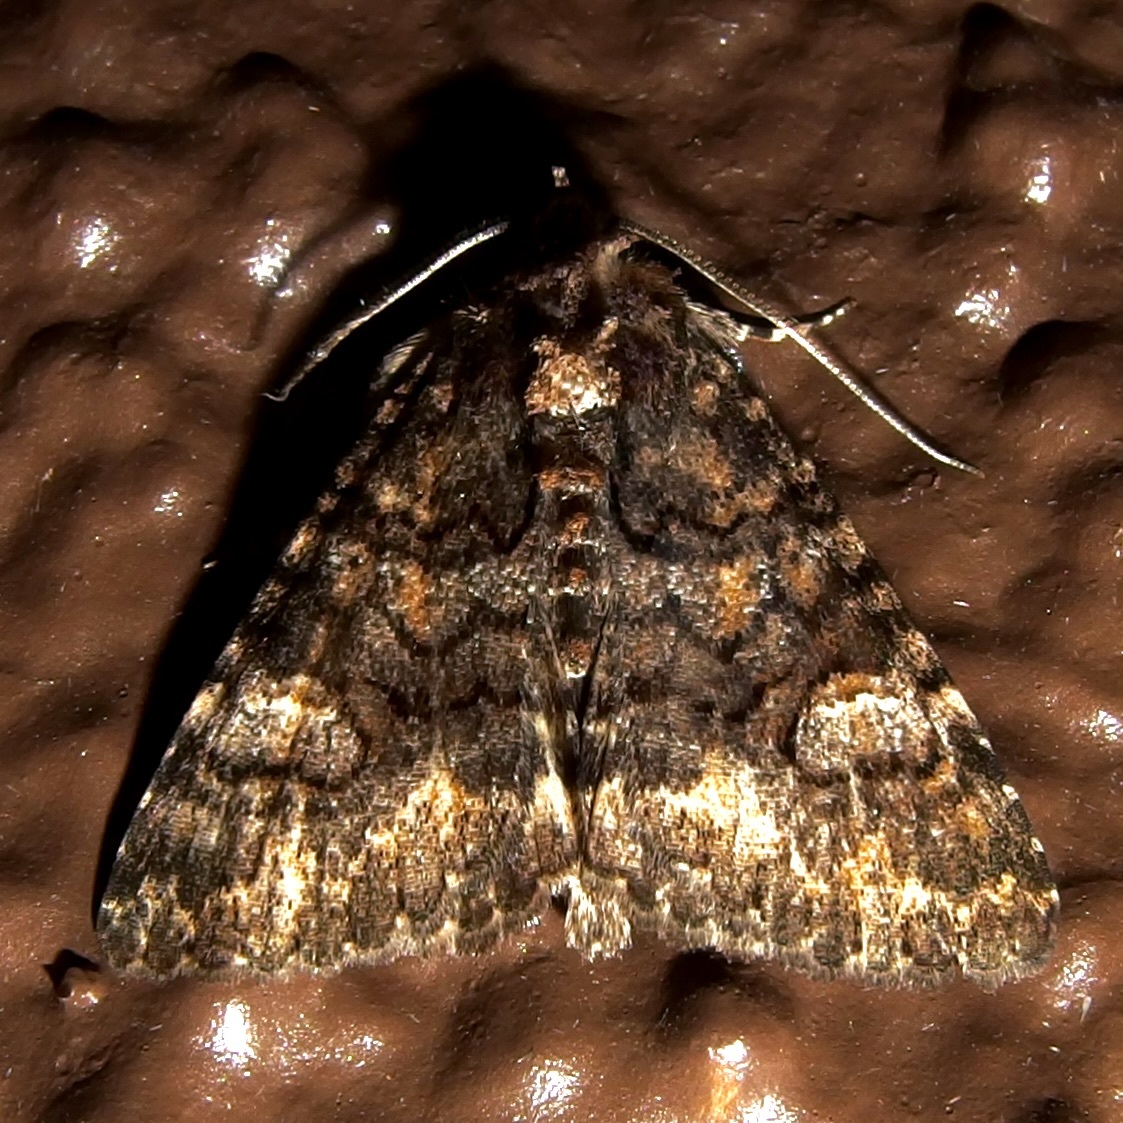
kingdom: Animalia
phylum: Arthropoda
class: Insecta
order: Lepidoptera
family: Erebidae
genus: Elousa
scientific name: Elousa mima
